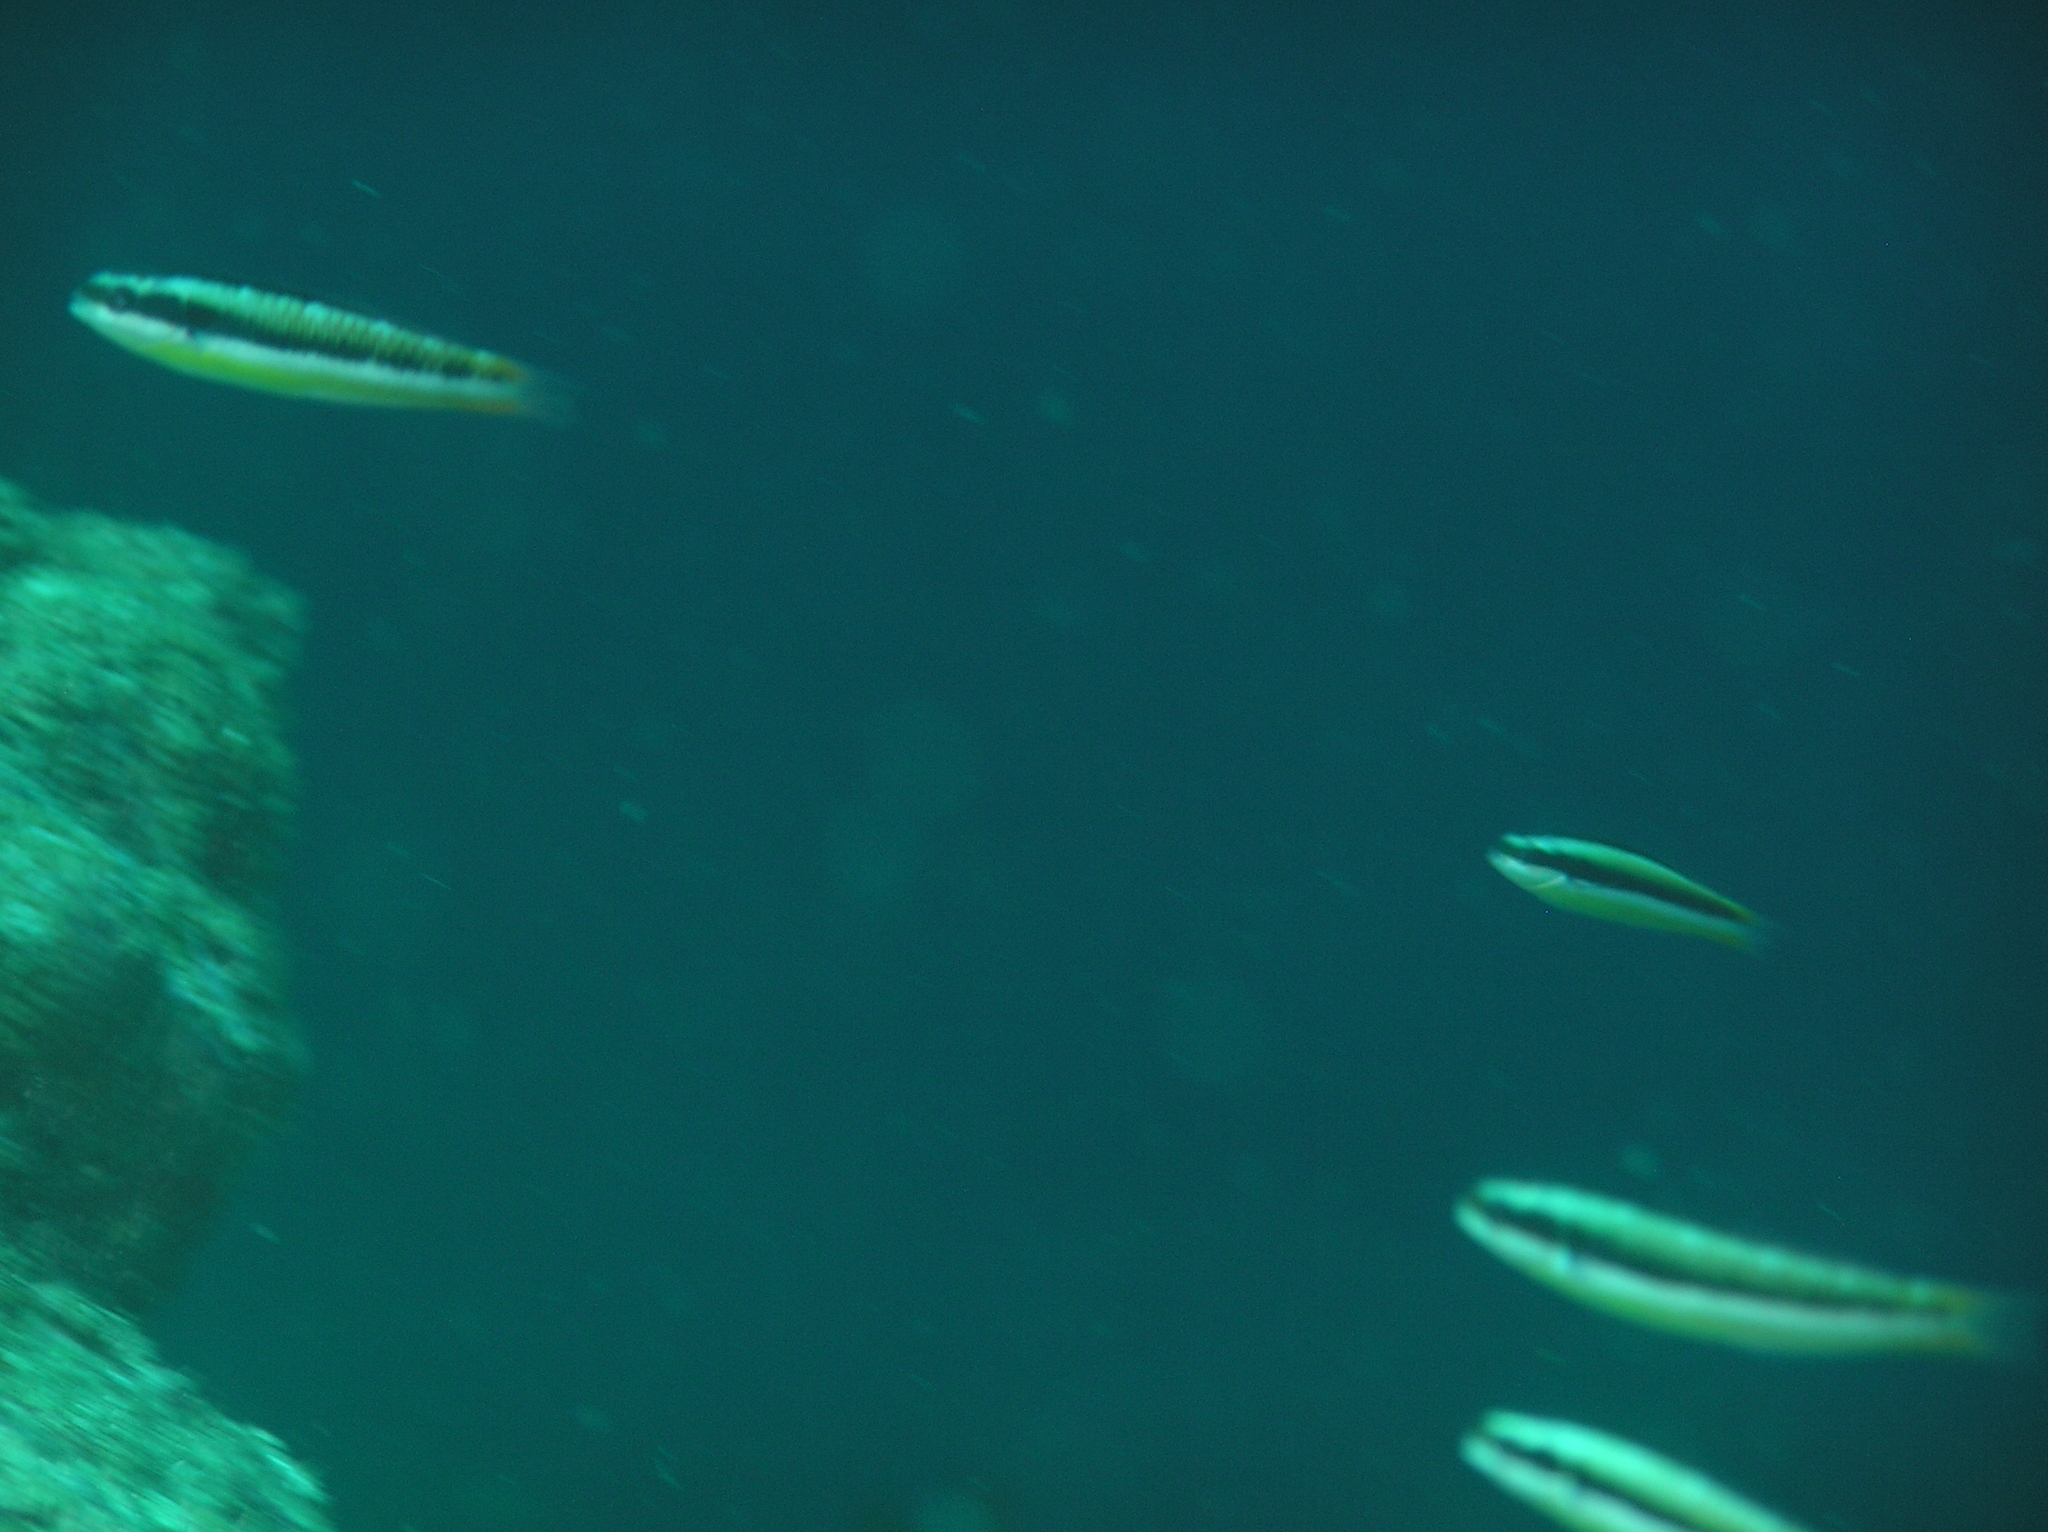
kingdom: Animalia
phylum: Chordata
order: Perciformes
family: Labridae
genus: Thalassoma
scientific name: Thalassoma amblycephalum
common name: Bluehead wrasse
